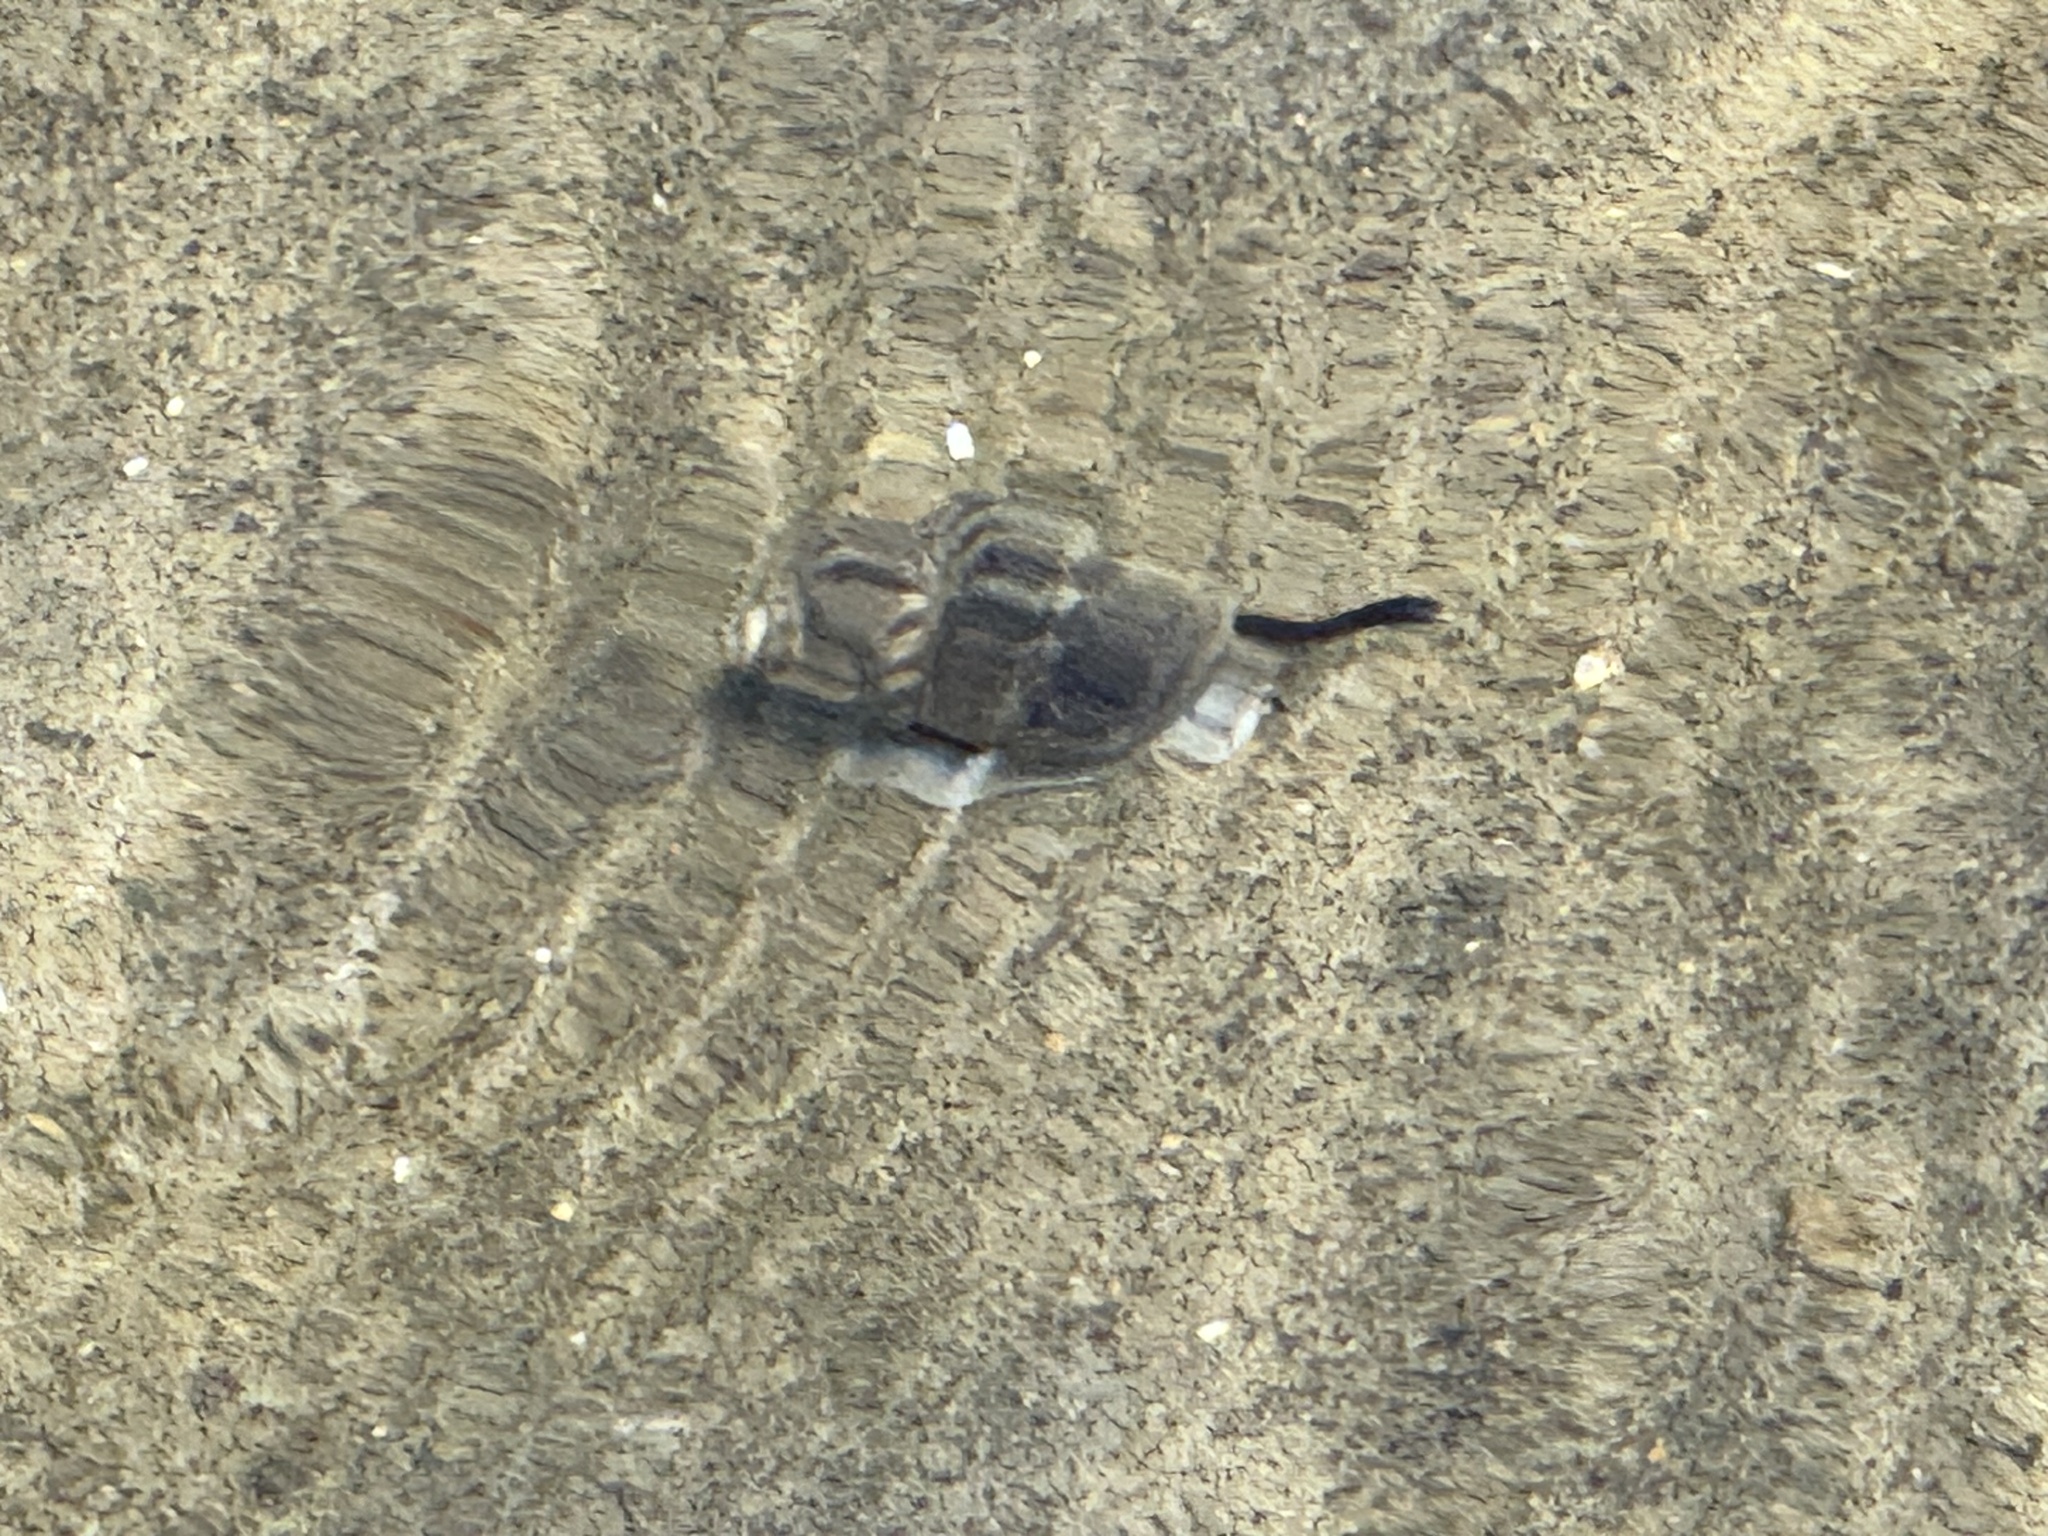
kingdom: Animalia
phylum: Mollusca
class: Gastropoda
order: Neogastropoda
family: Cominellidae
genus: Cominella
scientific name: Cominella glandiformis
